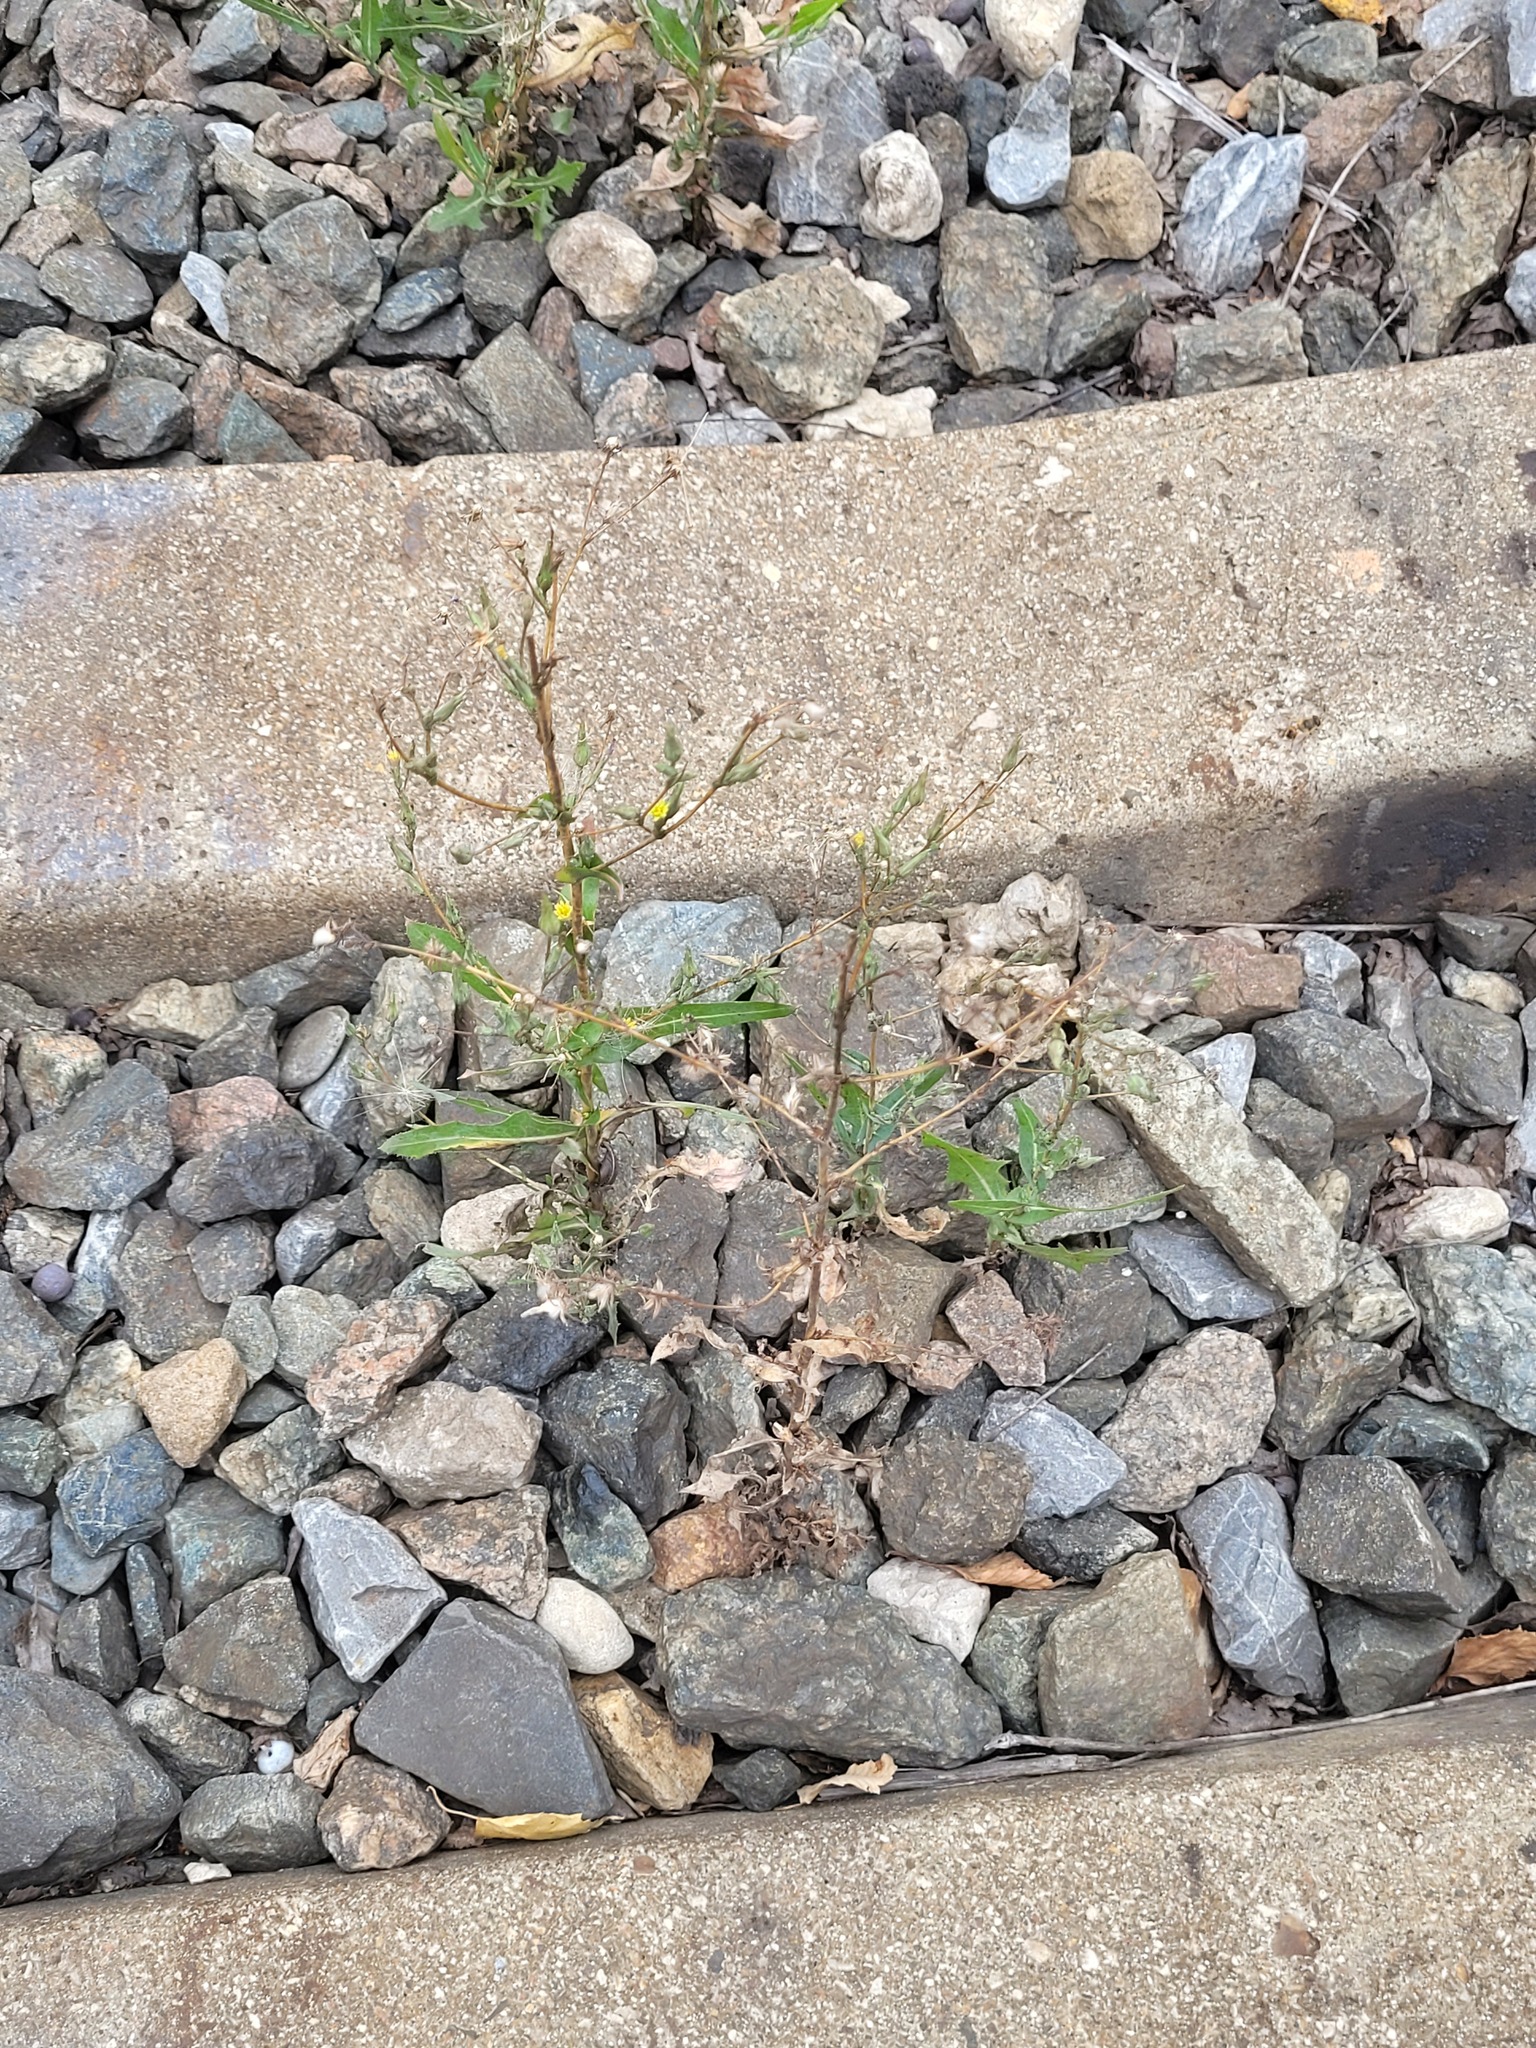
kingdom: Plantae
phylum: Tracheophyta
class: Magnoliopsida
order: Asterales
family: Asteraceae
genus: Lactuca
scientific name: Lactuca serriola
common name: Prickly lettuce
